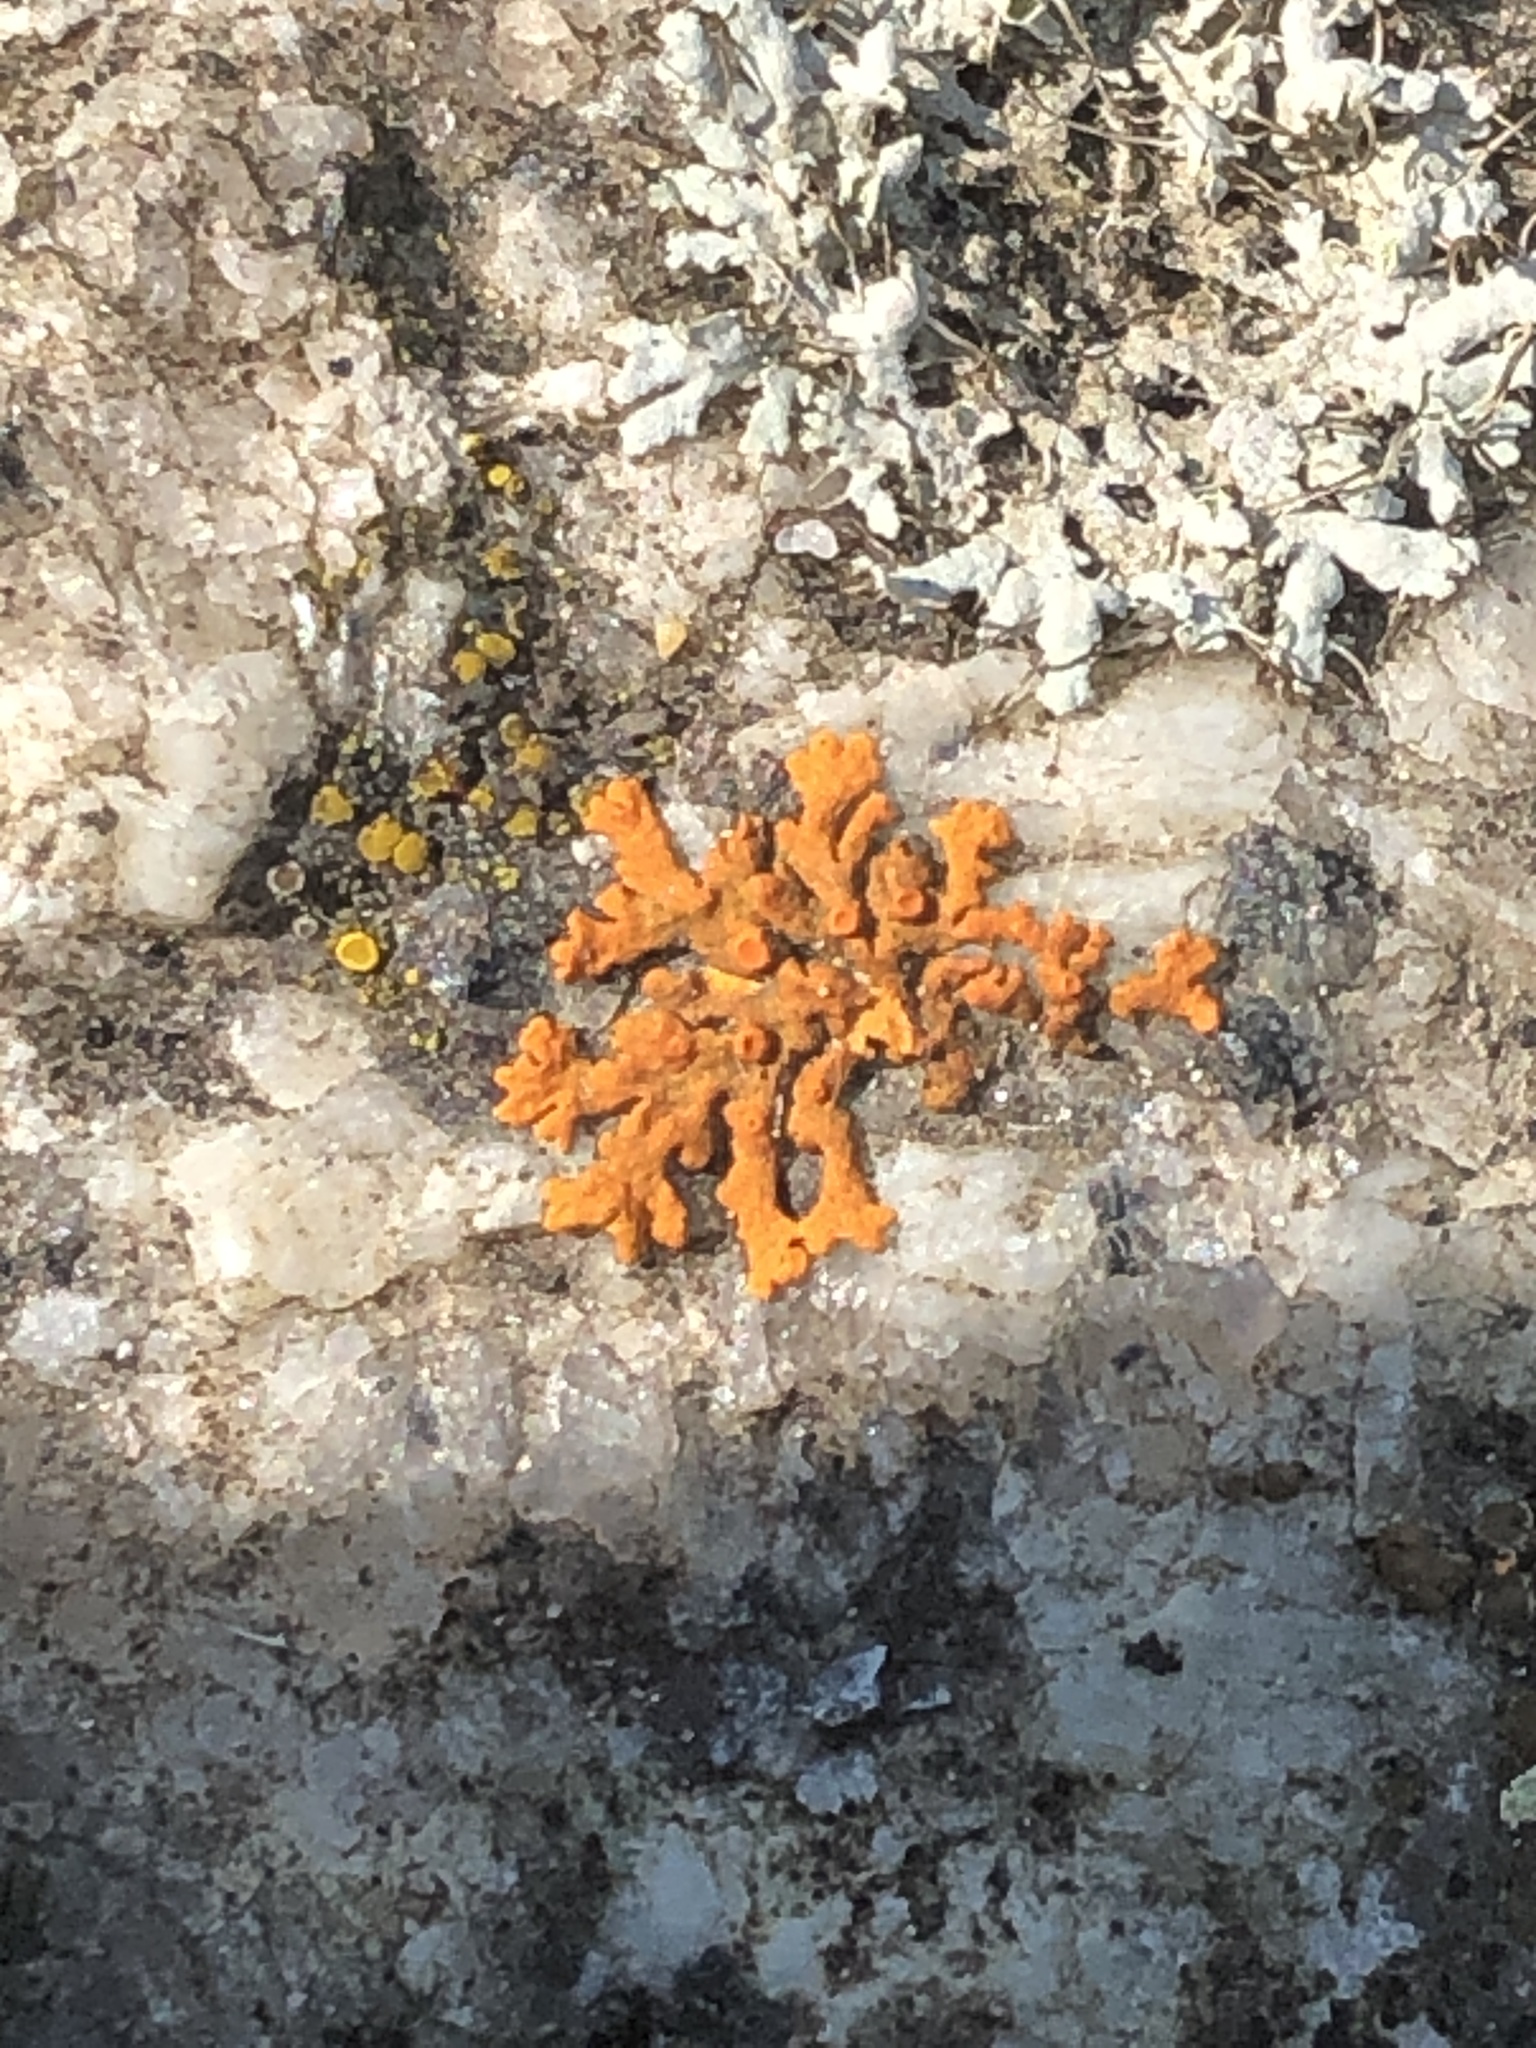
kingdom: Fungi
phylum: Ascomycota
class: Lecanoromycetes
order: Teloschistales
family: Teloschistaceae
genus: Xanthoria
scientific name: Xanthoria elegans
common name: Elegant sunburst lichen
